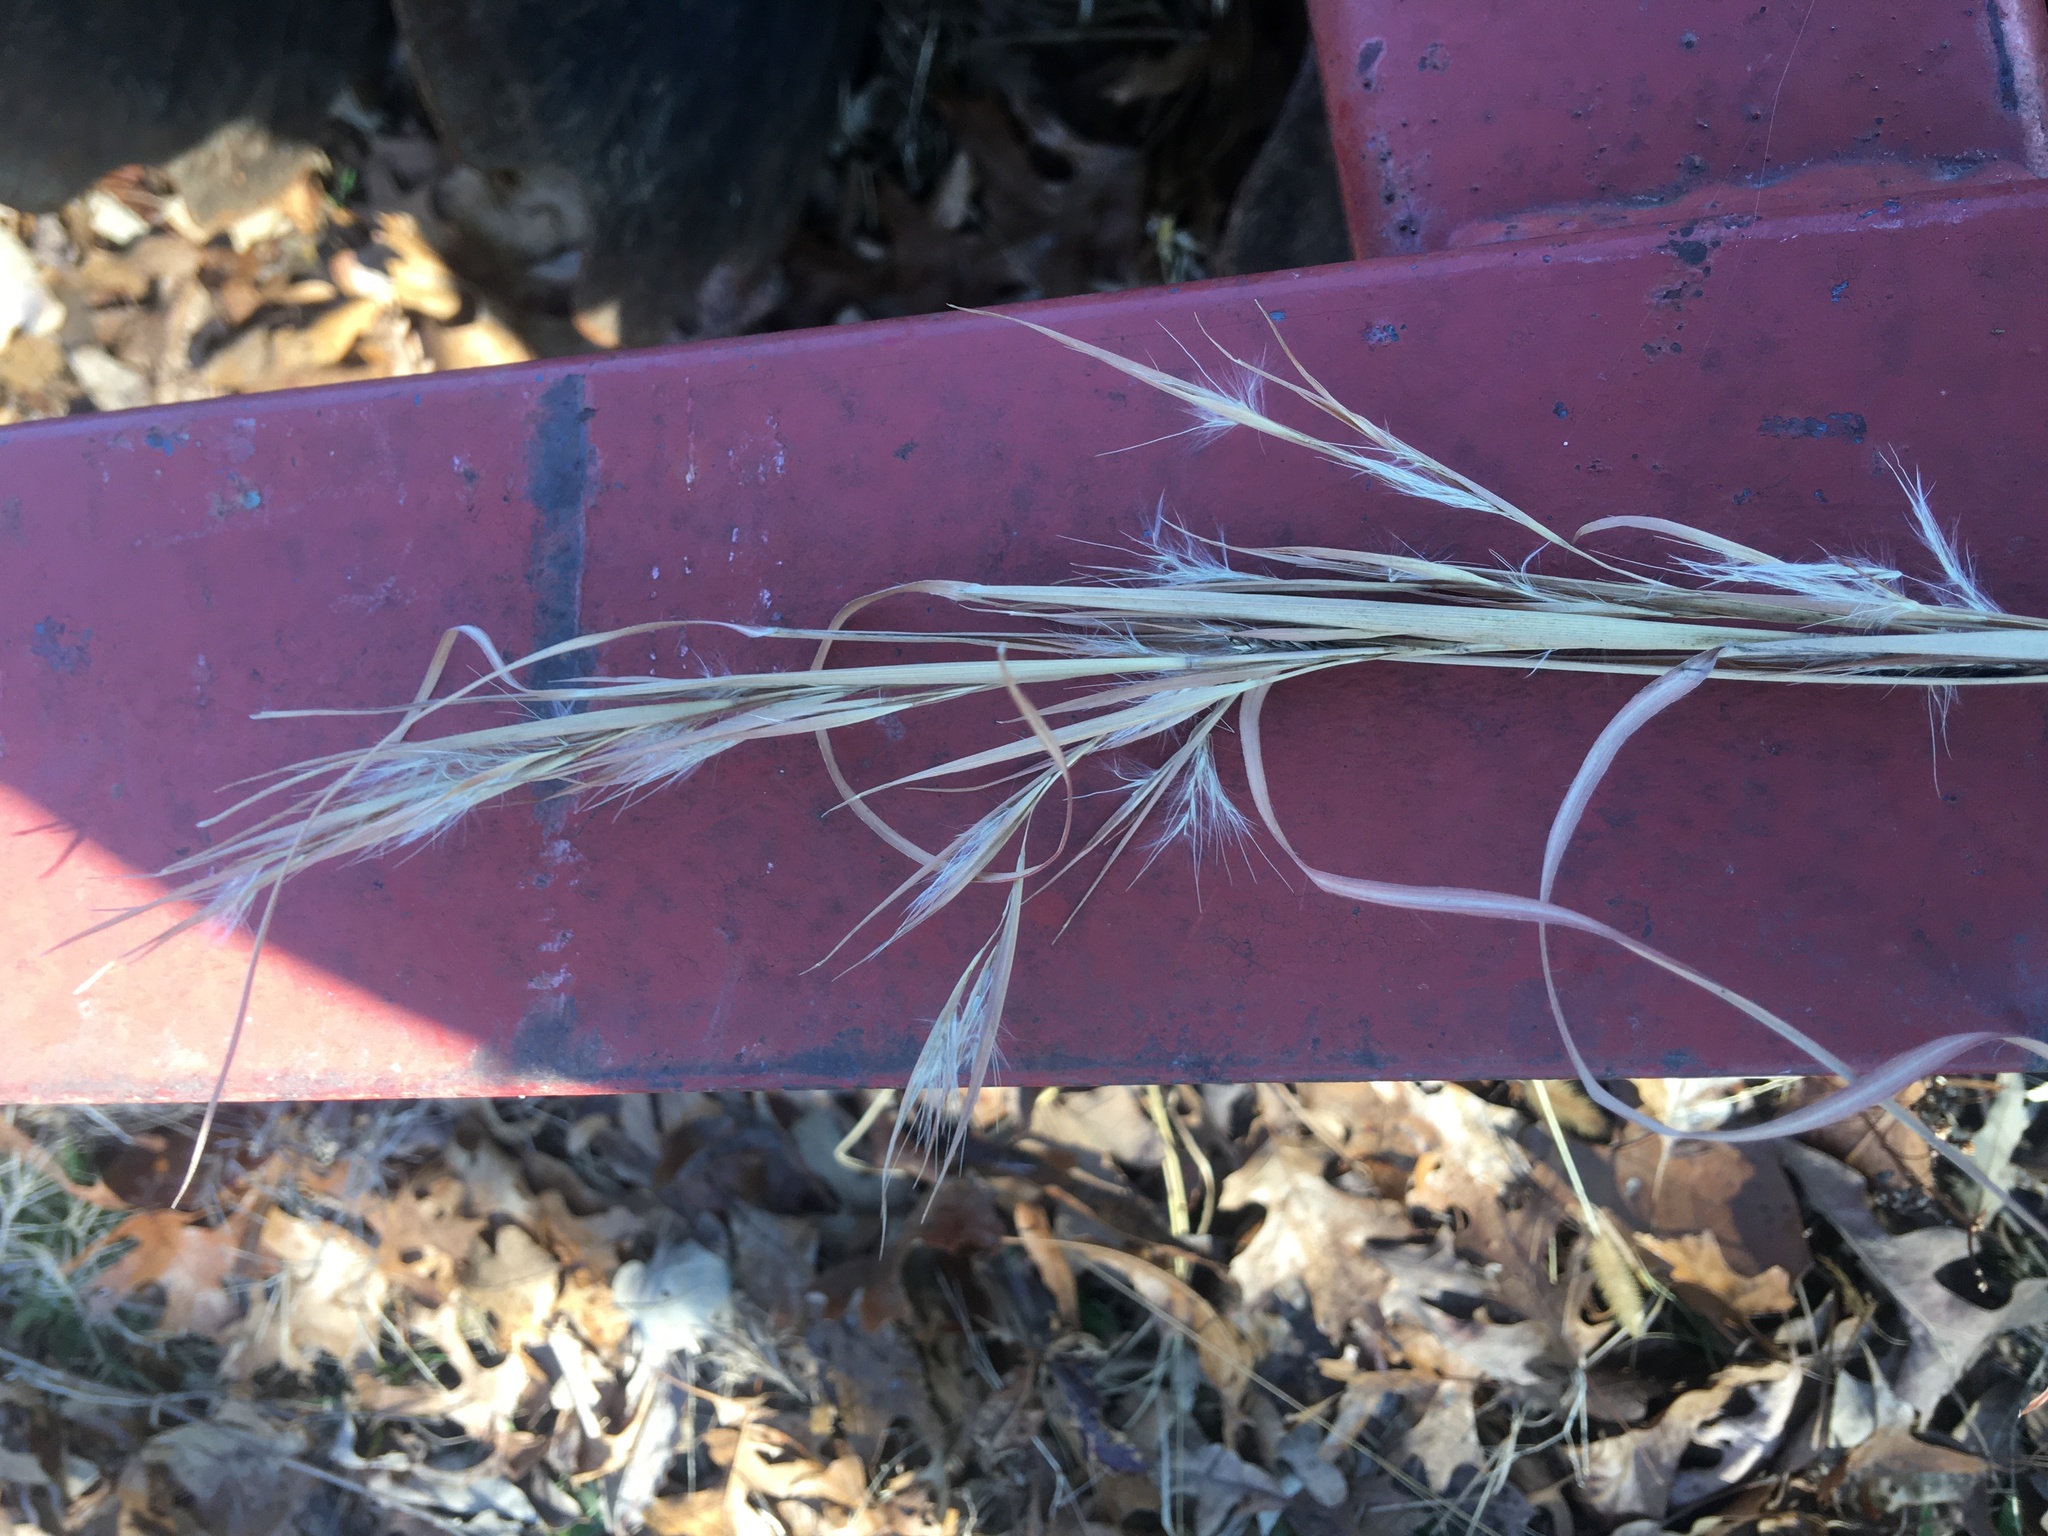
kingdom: Plantae
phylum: Tracheophyta
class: Liliopsida
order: Poales
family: Poaceae
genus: Andropogon
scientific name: Andropogon virginicus
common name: Broomsedge bluestem
